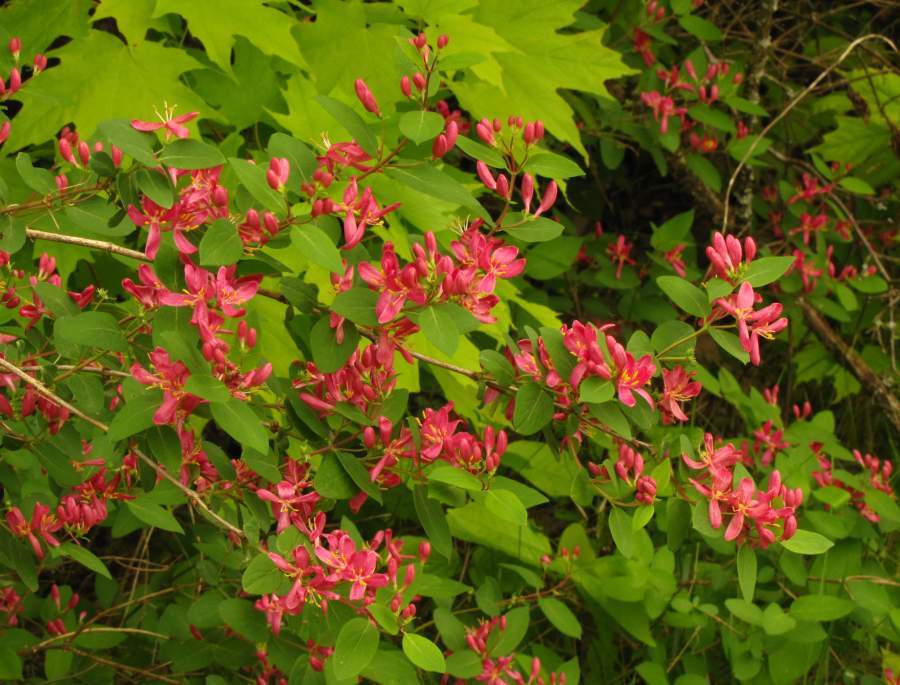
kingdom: Plantae
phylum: Tracheophyta
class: Magnoliopsida
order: Dipsacales
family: Caprifoliaceae
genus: Lonicera
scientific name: Lonicera tatarica
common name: Tatarian honeysuckle
